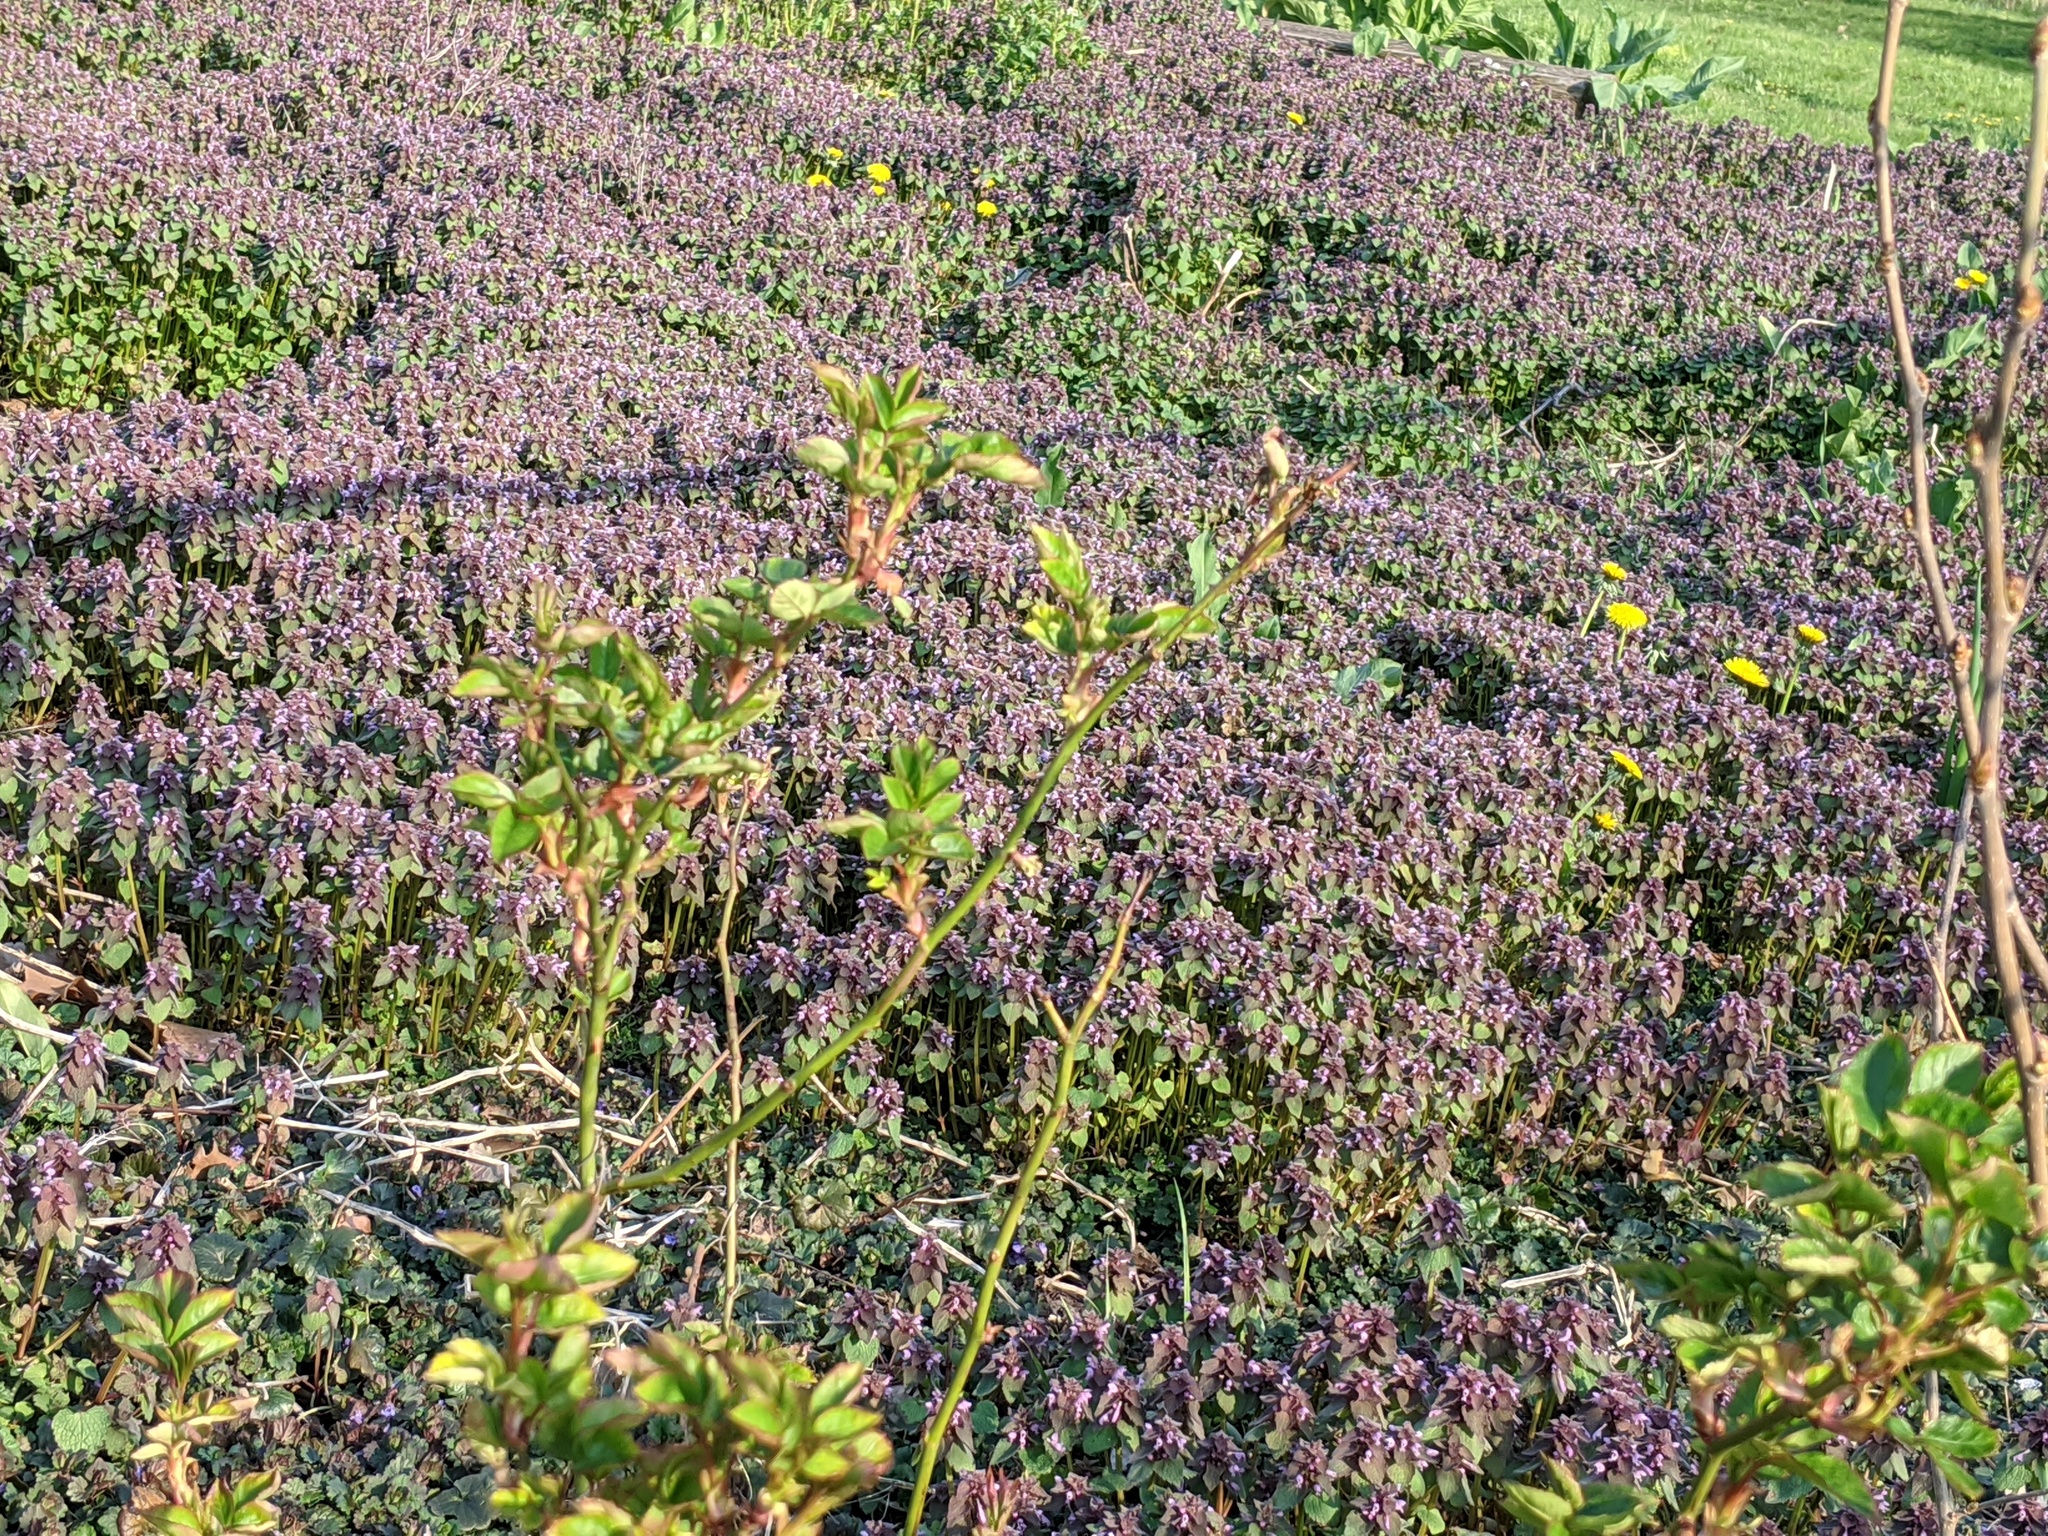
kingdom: Plantae
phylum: Tracheophyta
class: Magnoliopsida
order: Lamiales
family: Lamiaceae
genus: Lamium
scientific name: Lamium purpureum
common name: Red dead-nettle
